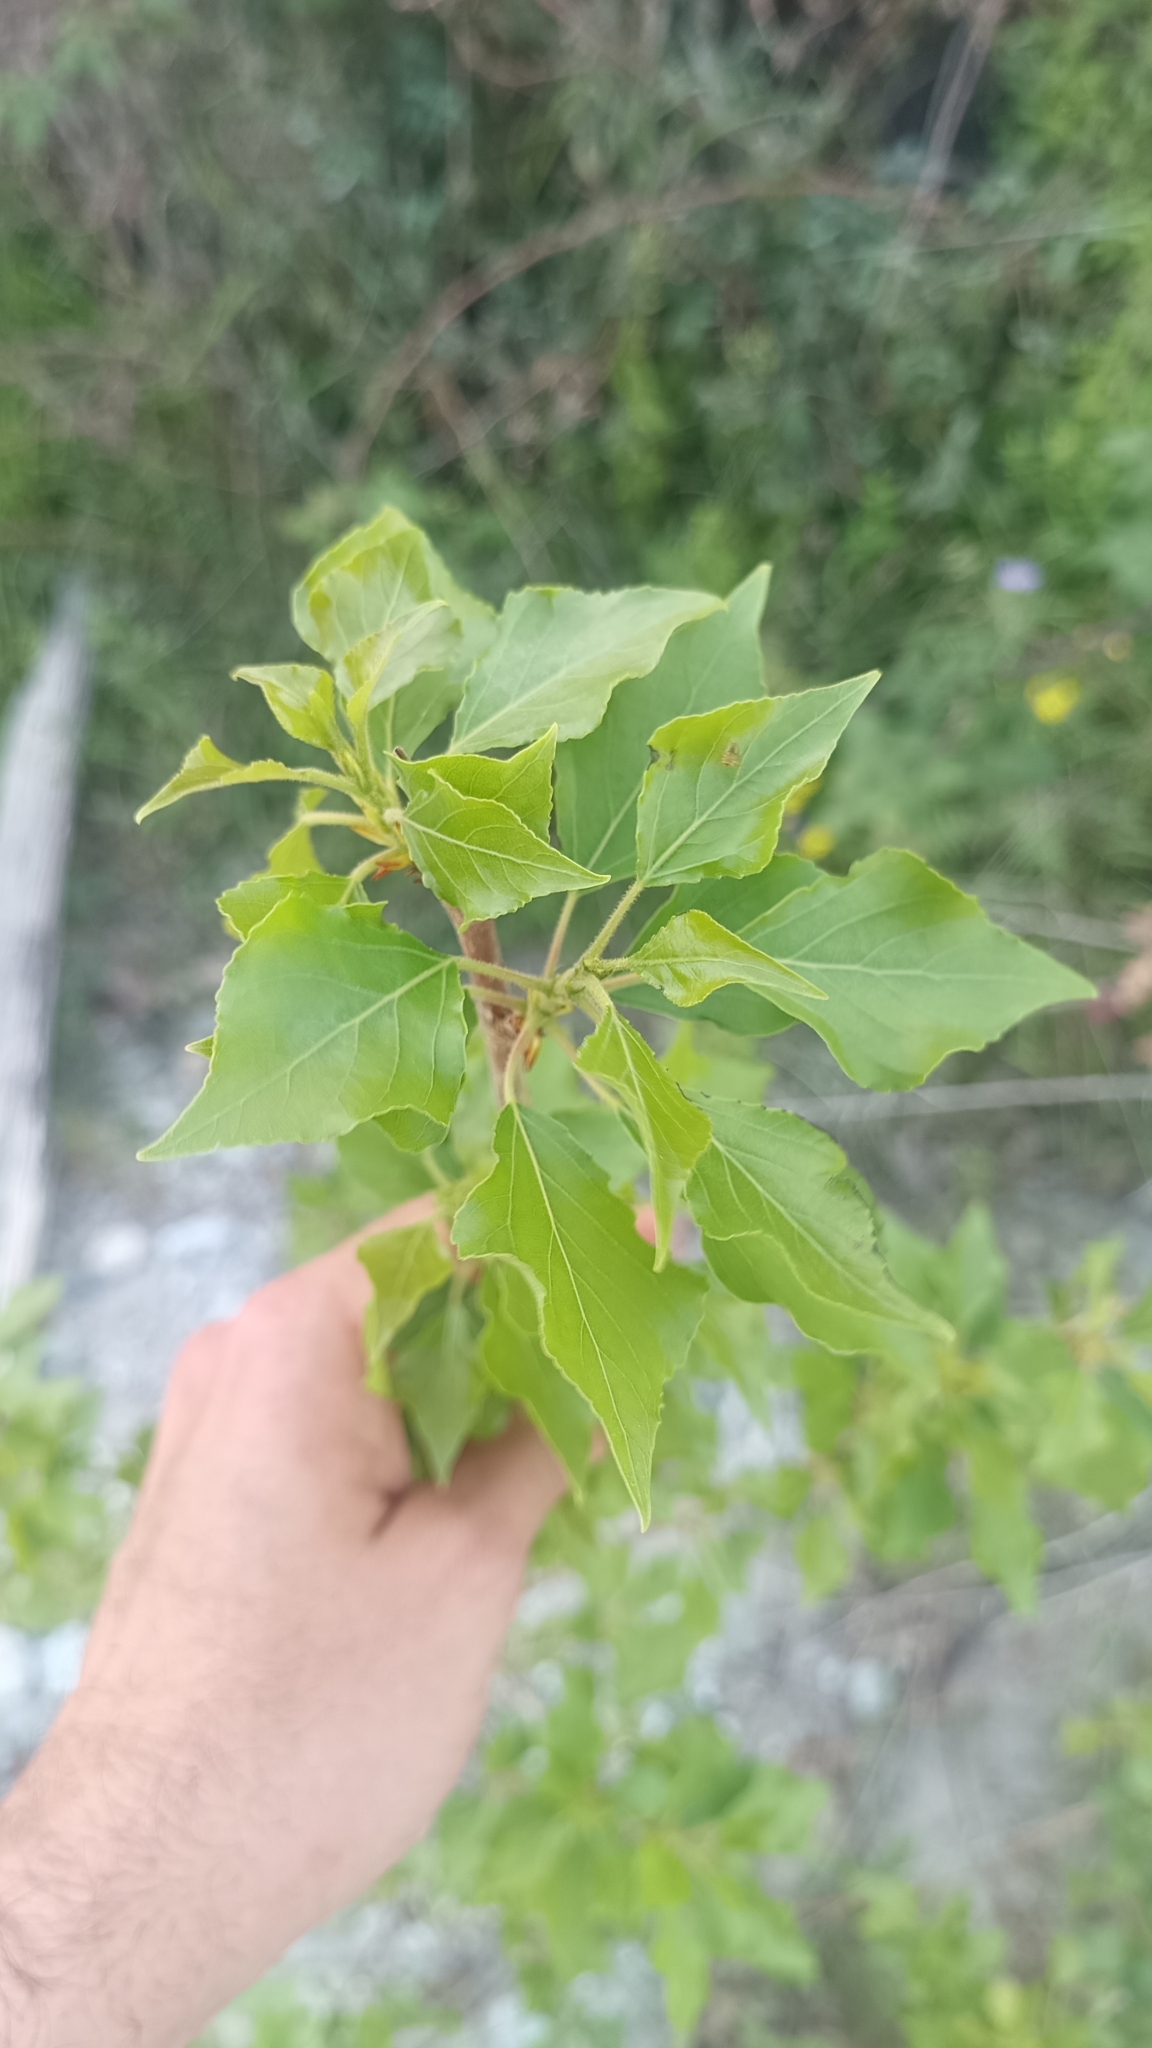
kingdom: Plantae
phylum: Tracheophyta
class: Magnoliopsida
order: Malpighiales
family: Salicaceae
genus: Populus
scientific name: Populus nigra
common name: Black poplar
